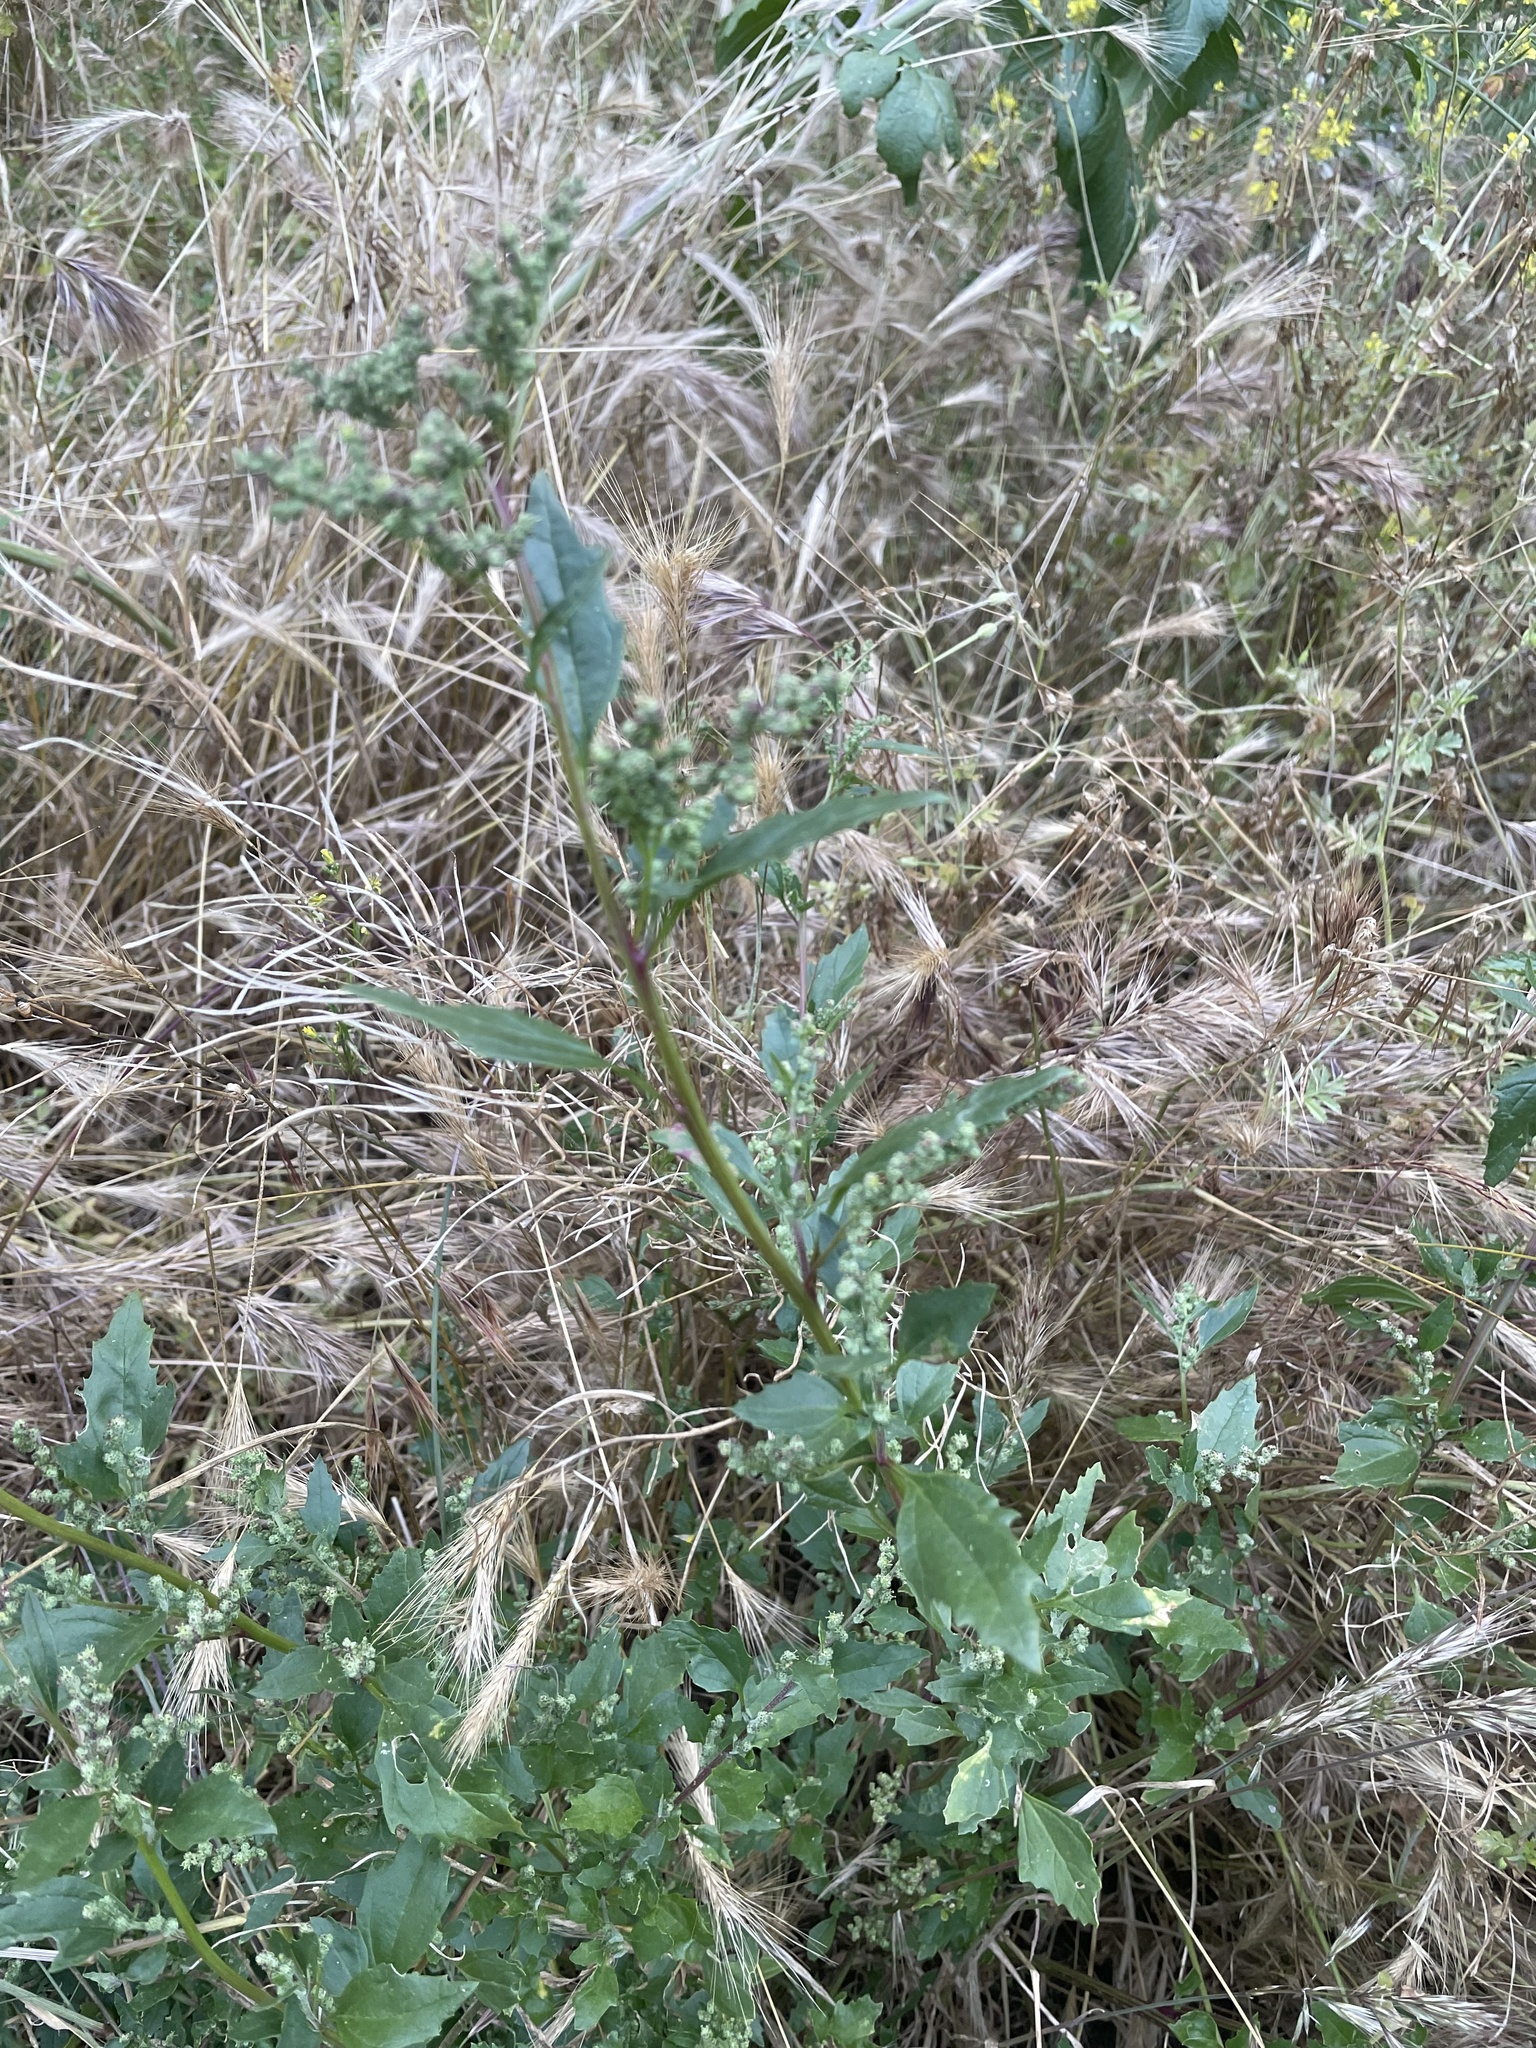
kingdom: Plantae
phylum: Tracheophyta
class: Magnoliopsida
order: Caryophyllales
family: Amaranthaceae
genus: Chenopodiastrum
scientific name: Chenopodiastrum murale
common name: Sowbane
